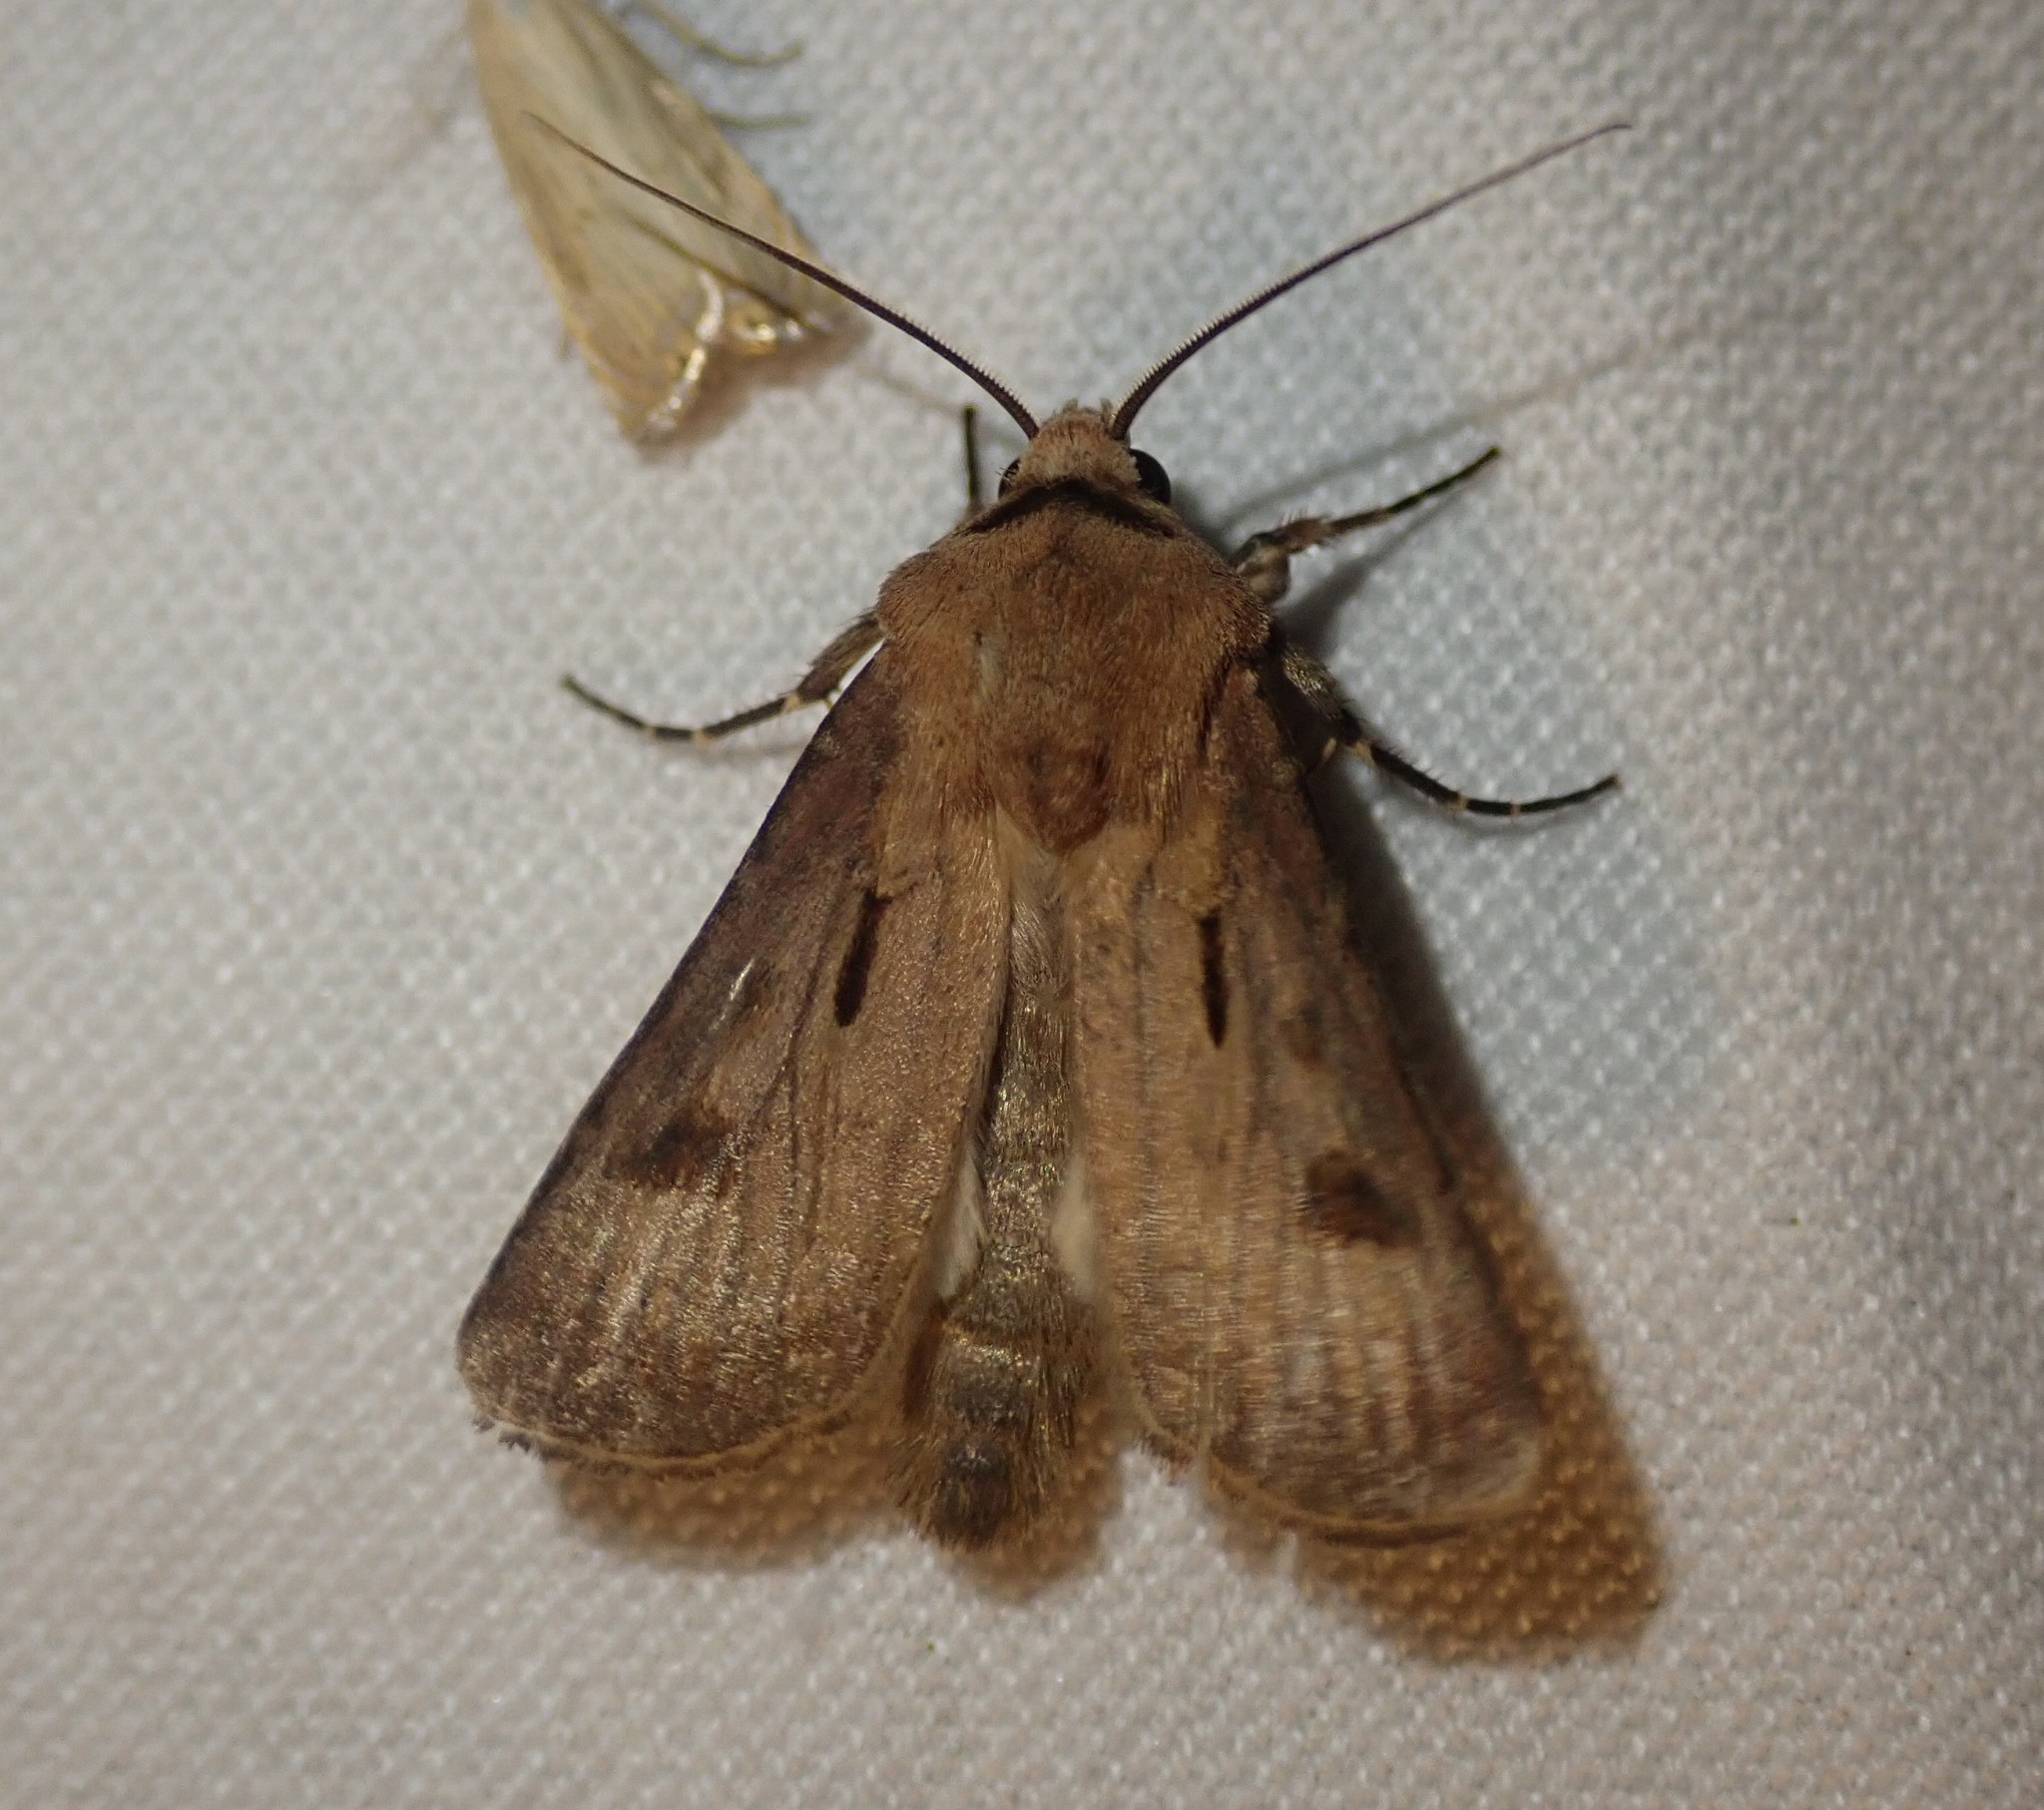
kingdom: Animalia
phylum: Arthropoda
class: Insecta
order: Lepidoptera
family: Noctuidae
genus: Agrotis
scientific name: Agrotis exclamationis
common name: Heart and dart
